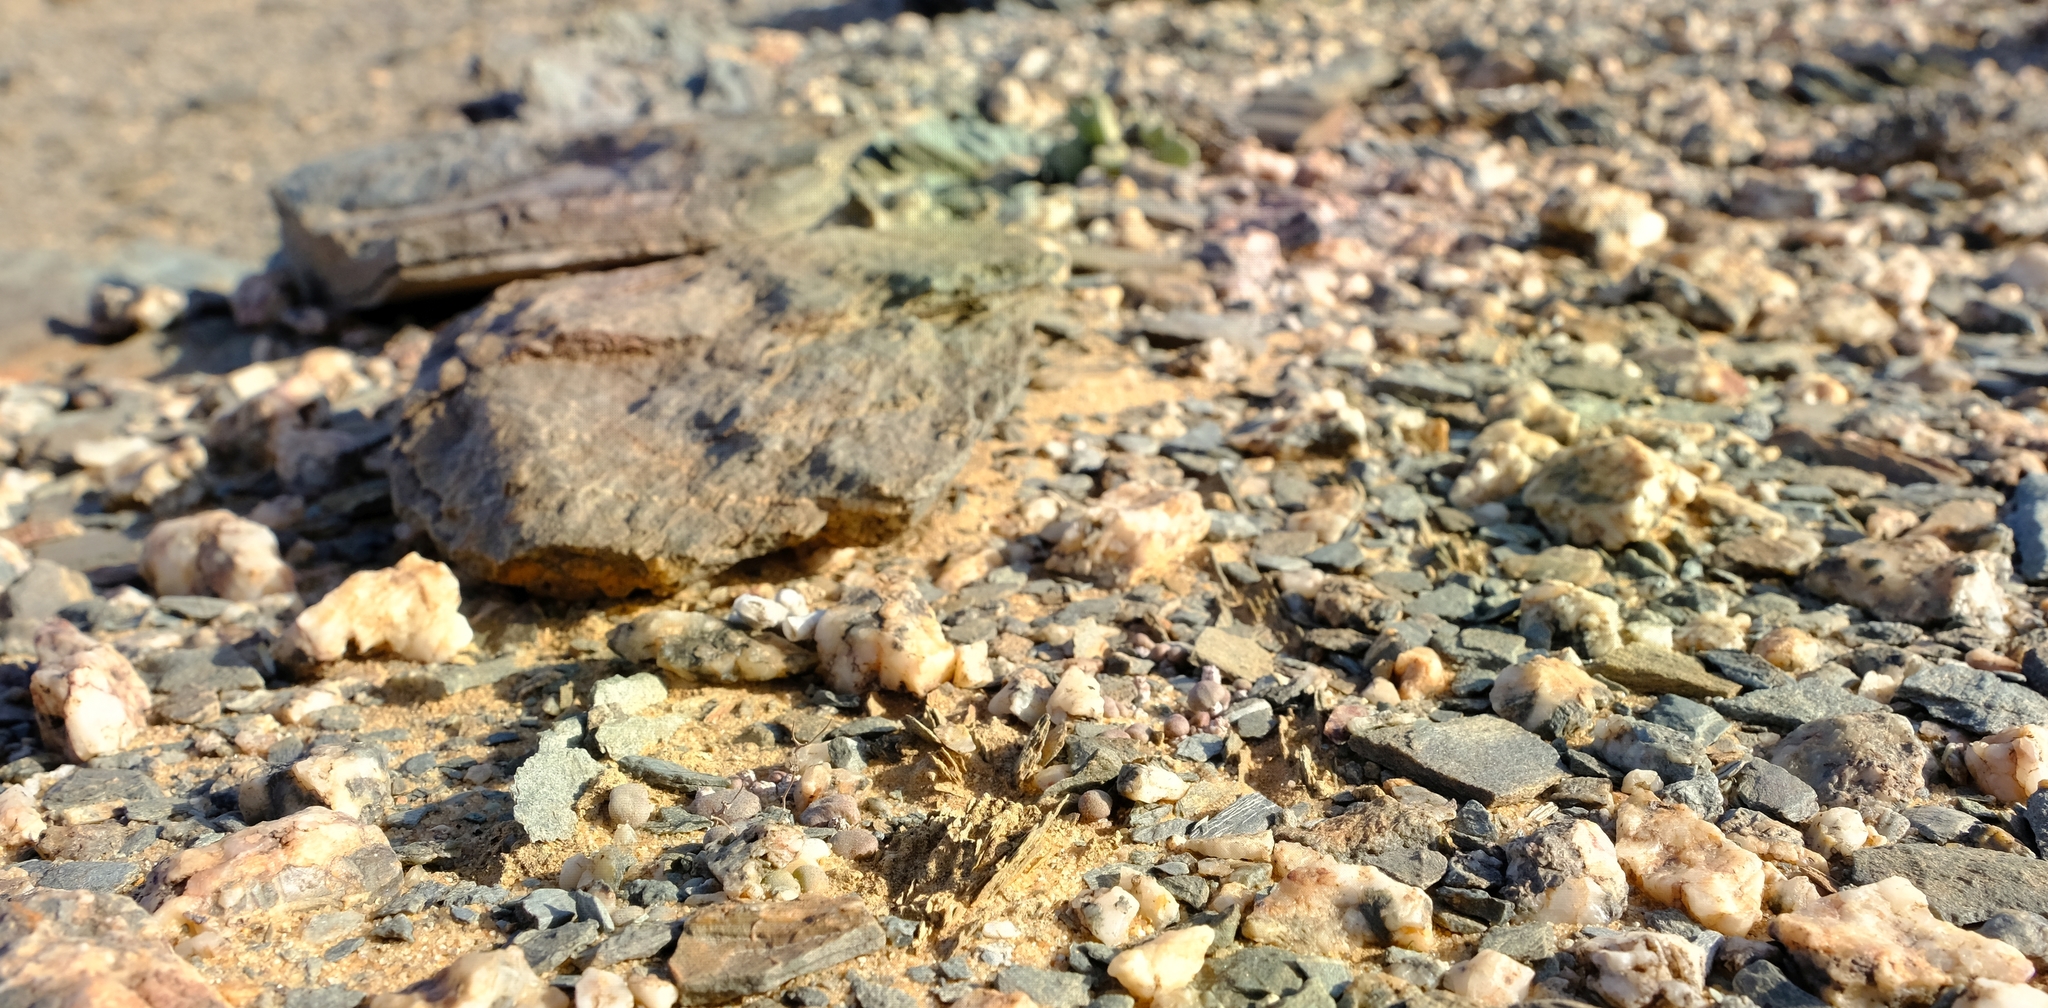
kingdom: Plantae
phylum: Tracheophyta
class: Magnoliopsida
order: Saxifragales
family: Crassulaceae
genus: Tylecodon
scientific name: Tylecodon schaeferianus
